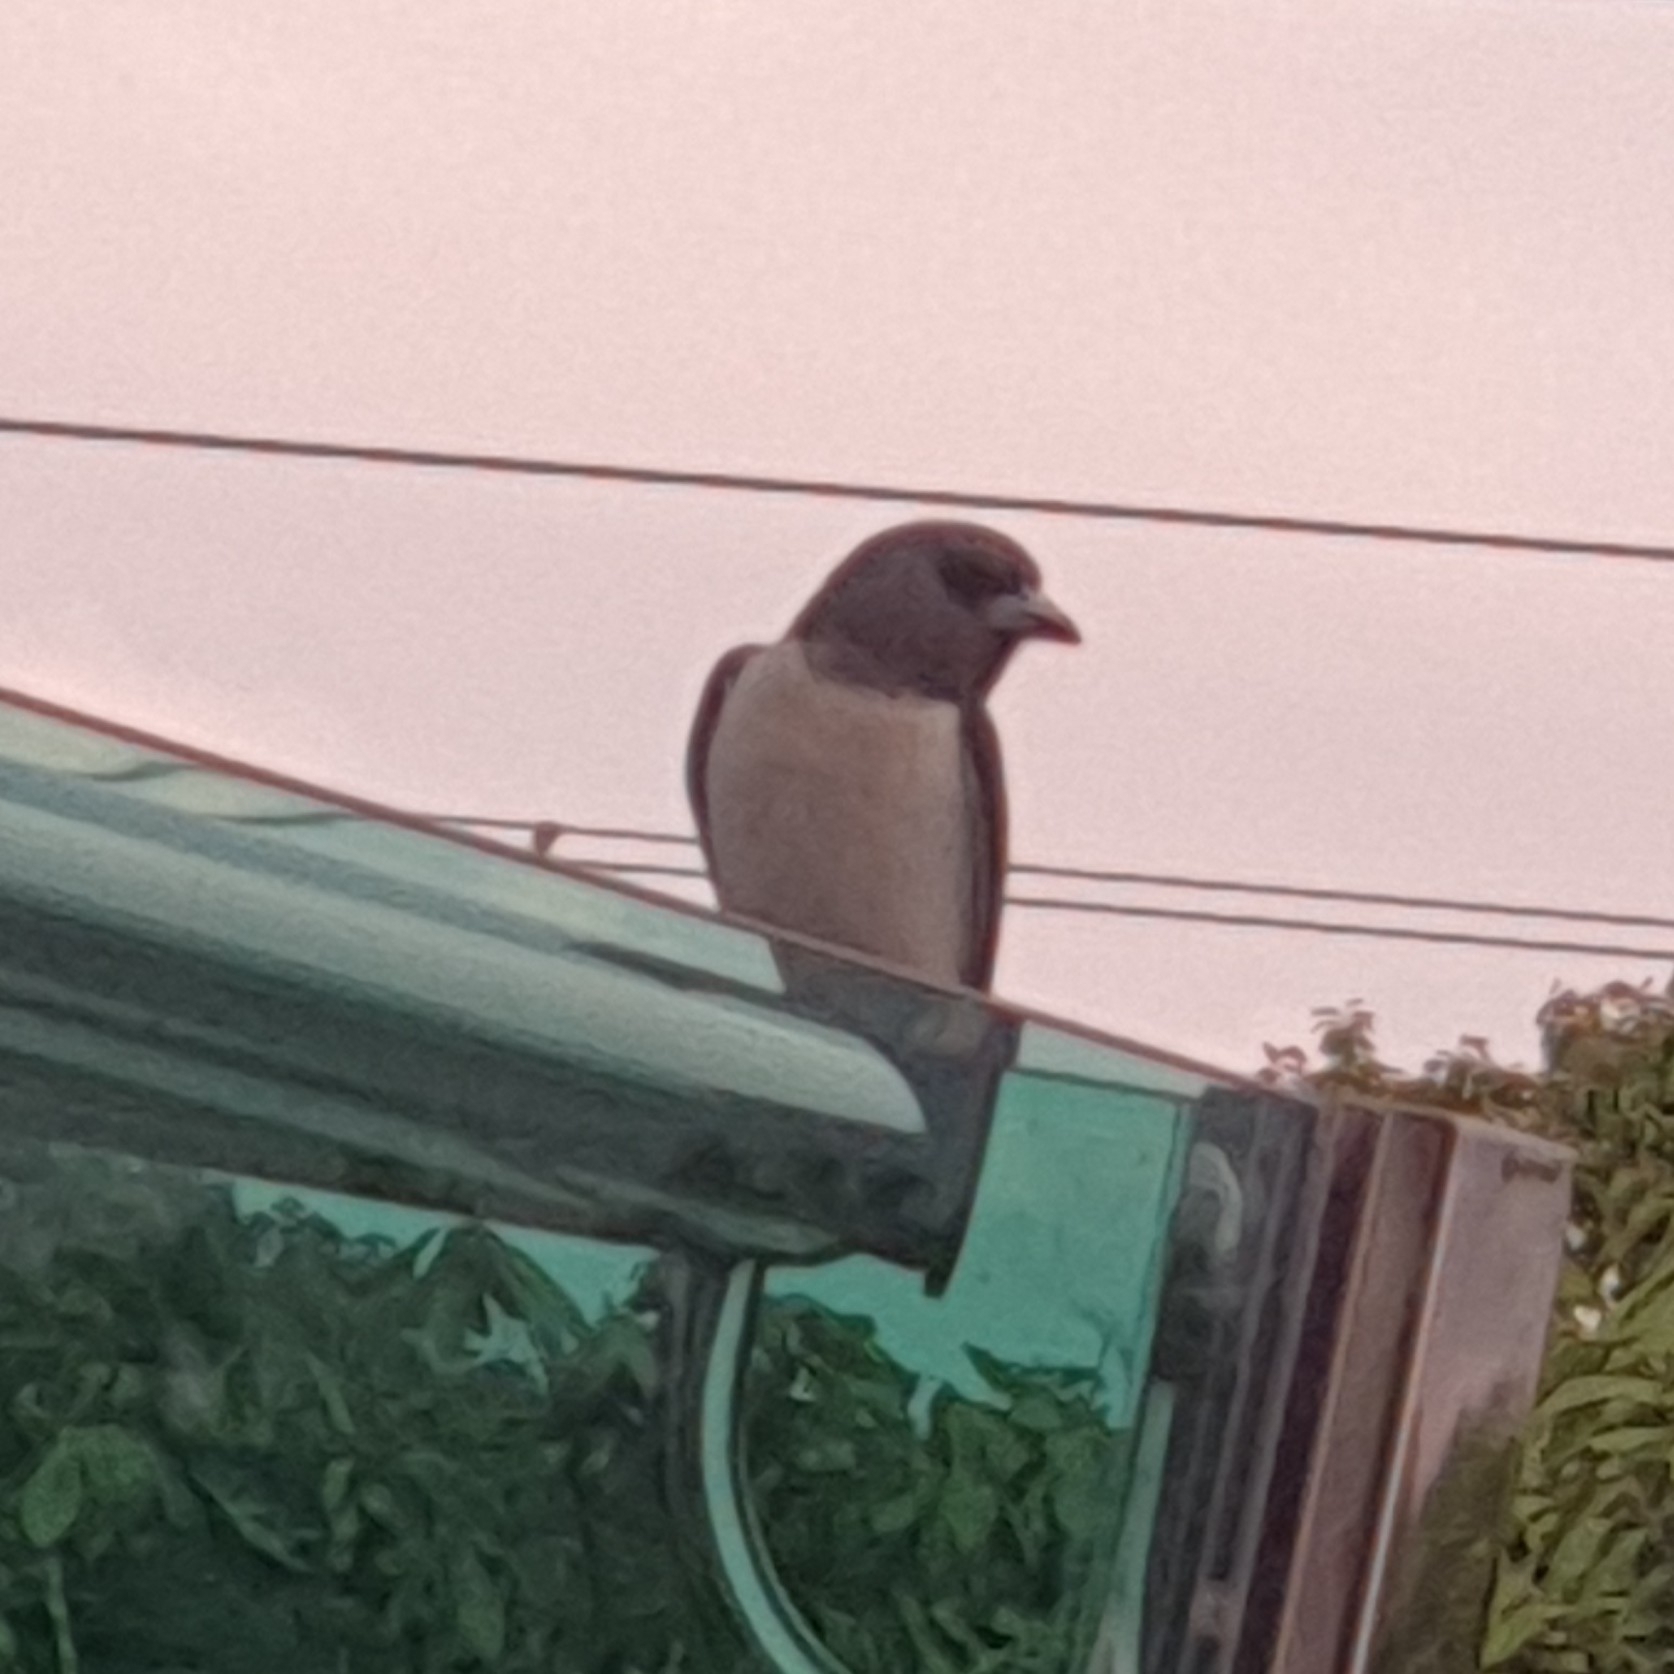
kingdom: Animalia
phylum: Chordata
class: Aves
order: Passeriformes
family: Artamidae
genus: Artamus
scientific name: Artamus leucoryn
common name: White-breasted woodswallow
